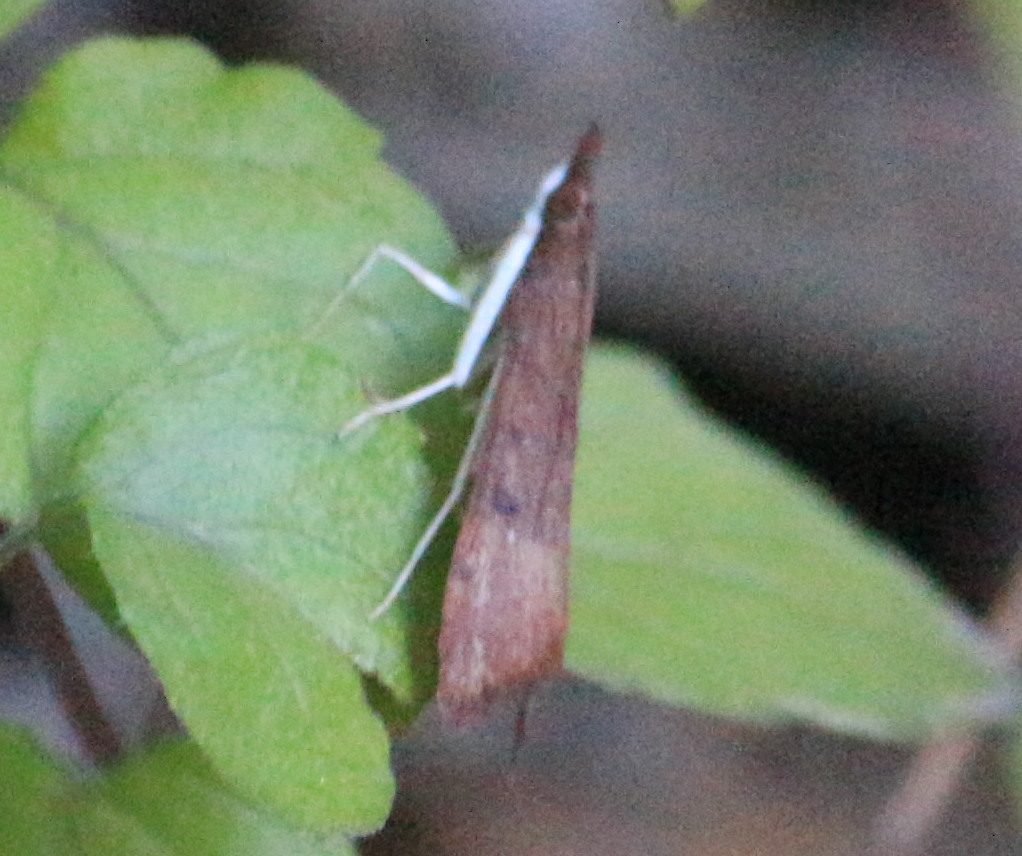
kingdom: Animalia
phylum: Arthropoda
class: Insecta
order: Lepidoptera
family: Crambidae
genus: Uresiphita
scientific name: Uresiphita reversalis
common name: Genista broom moth
